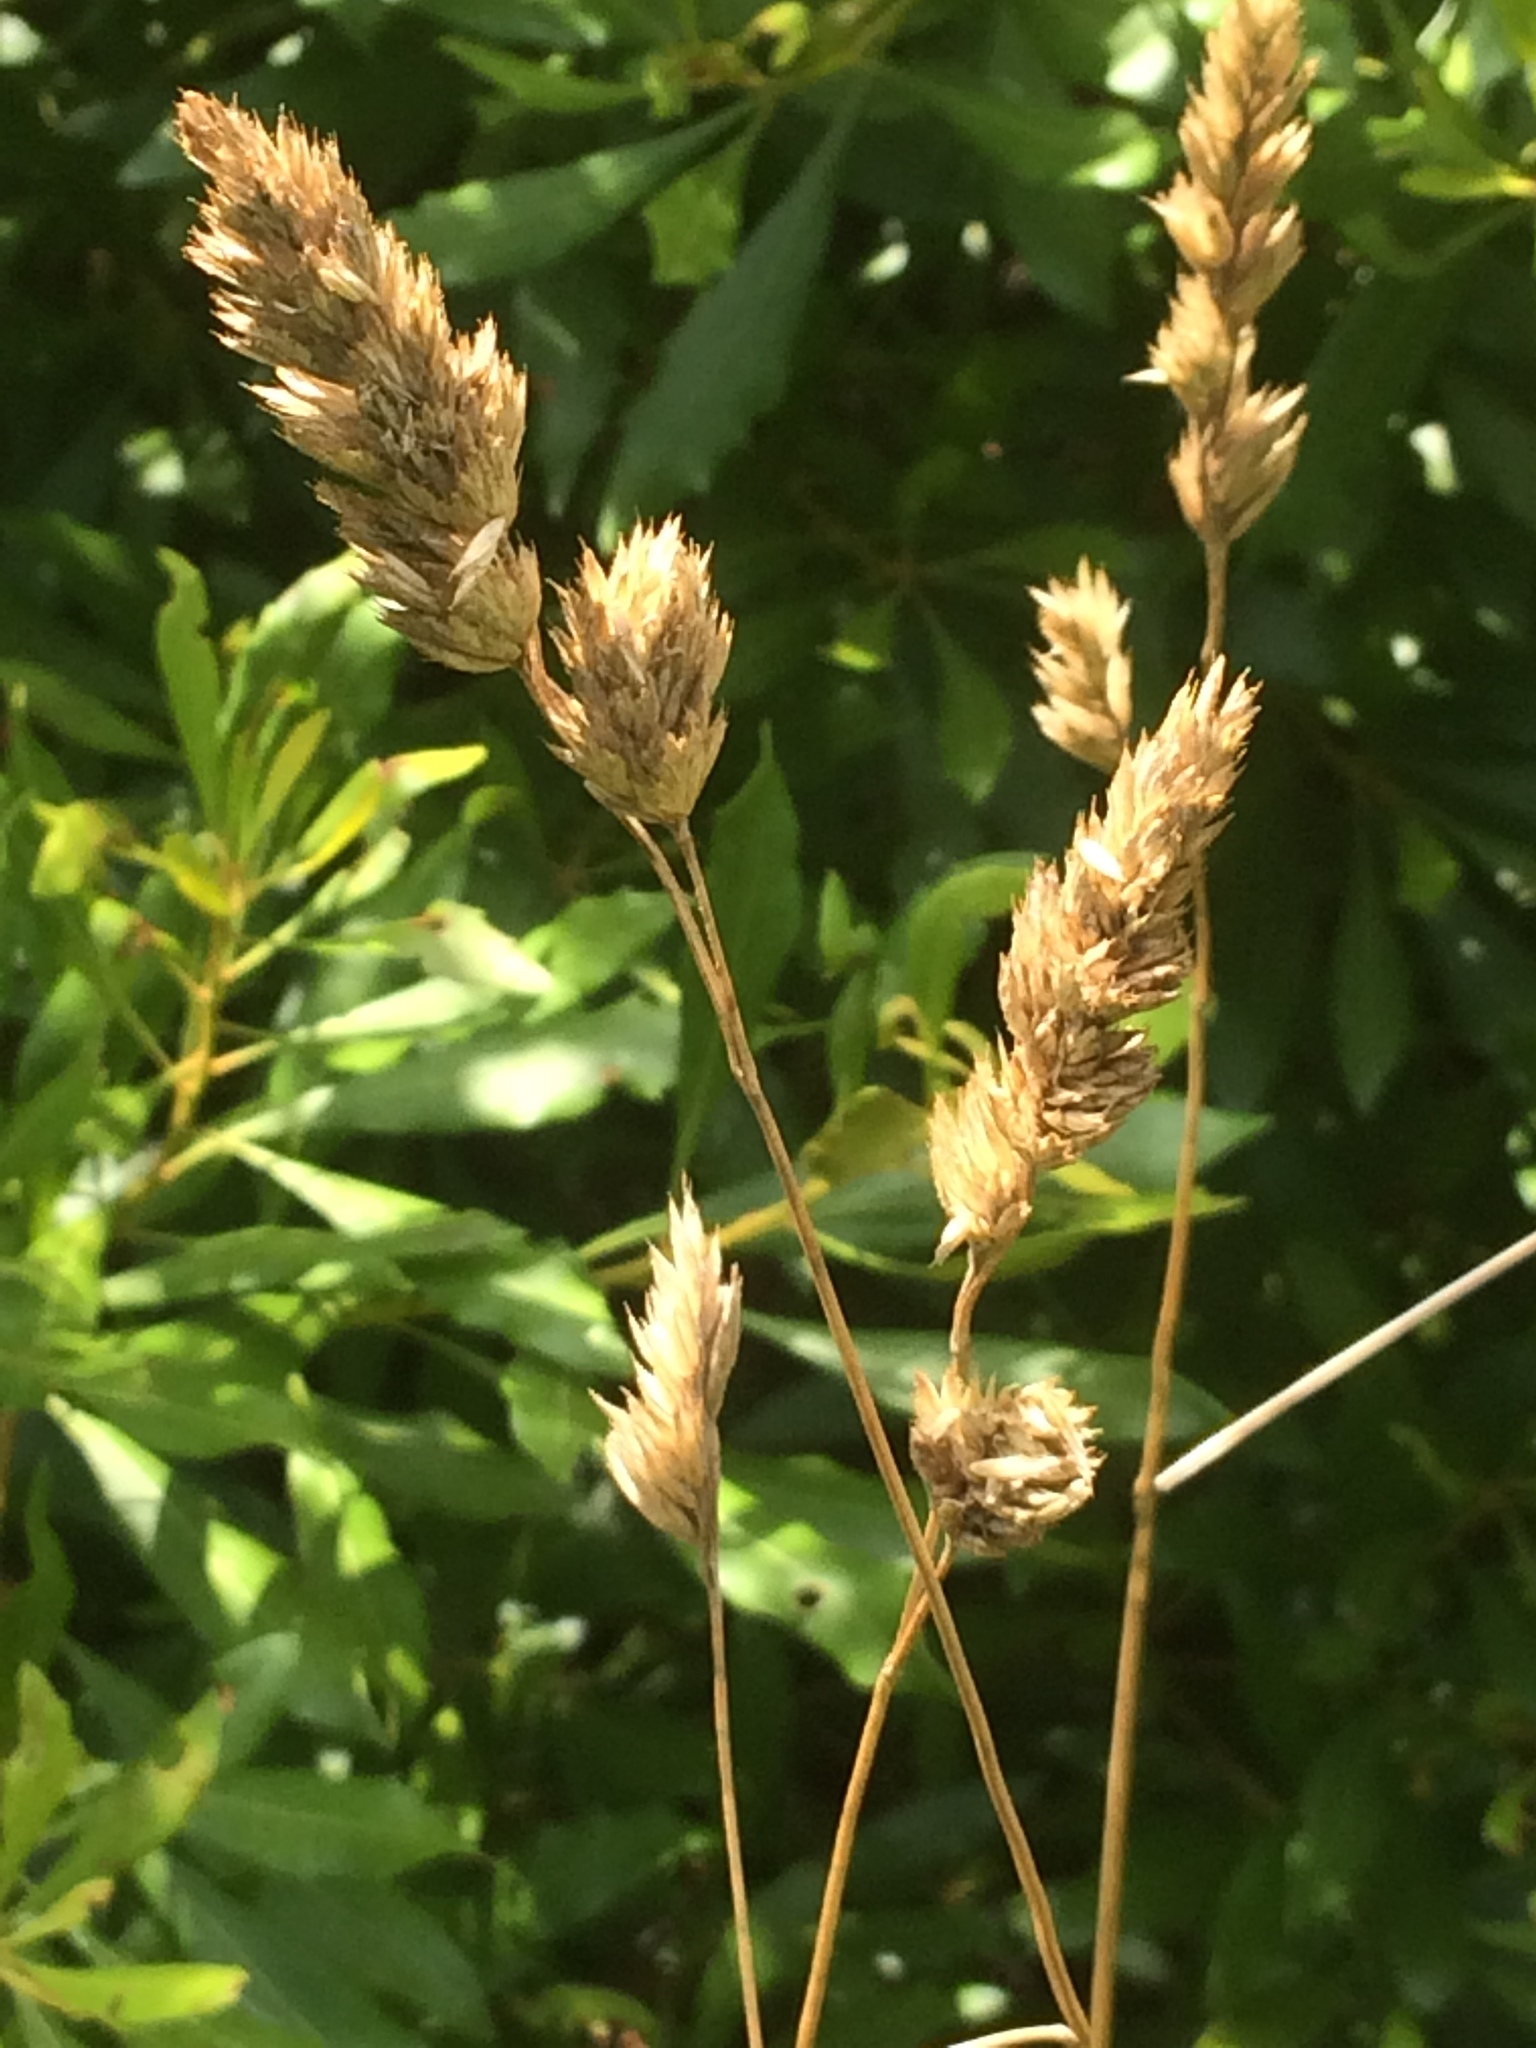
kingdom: Plantae
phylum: Tracheophyta
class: Liliopsida
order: Poales
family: Poaceae
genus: Dactylis
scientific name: Dactylis glomerata
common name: Orchardgrass
